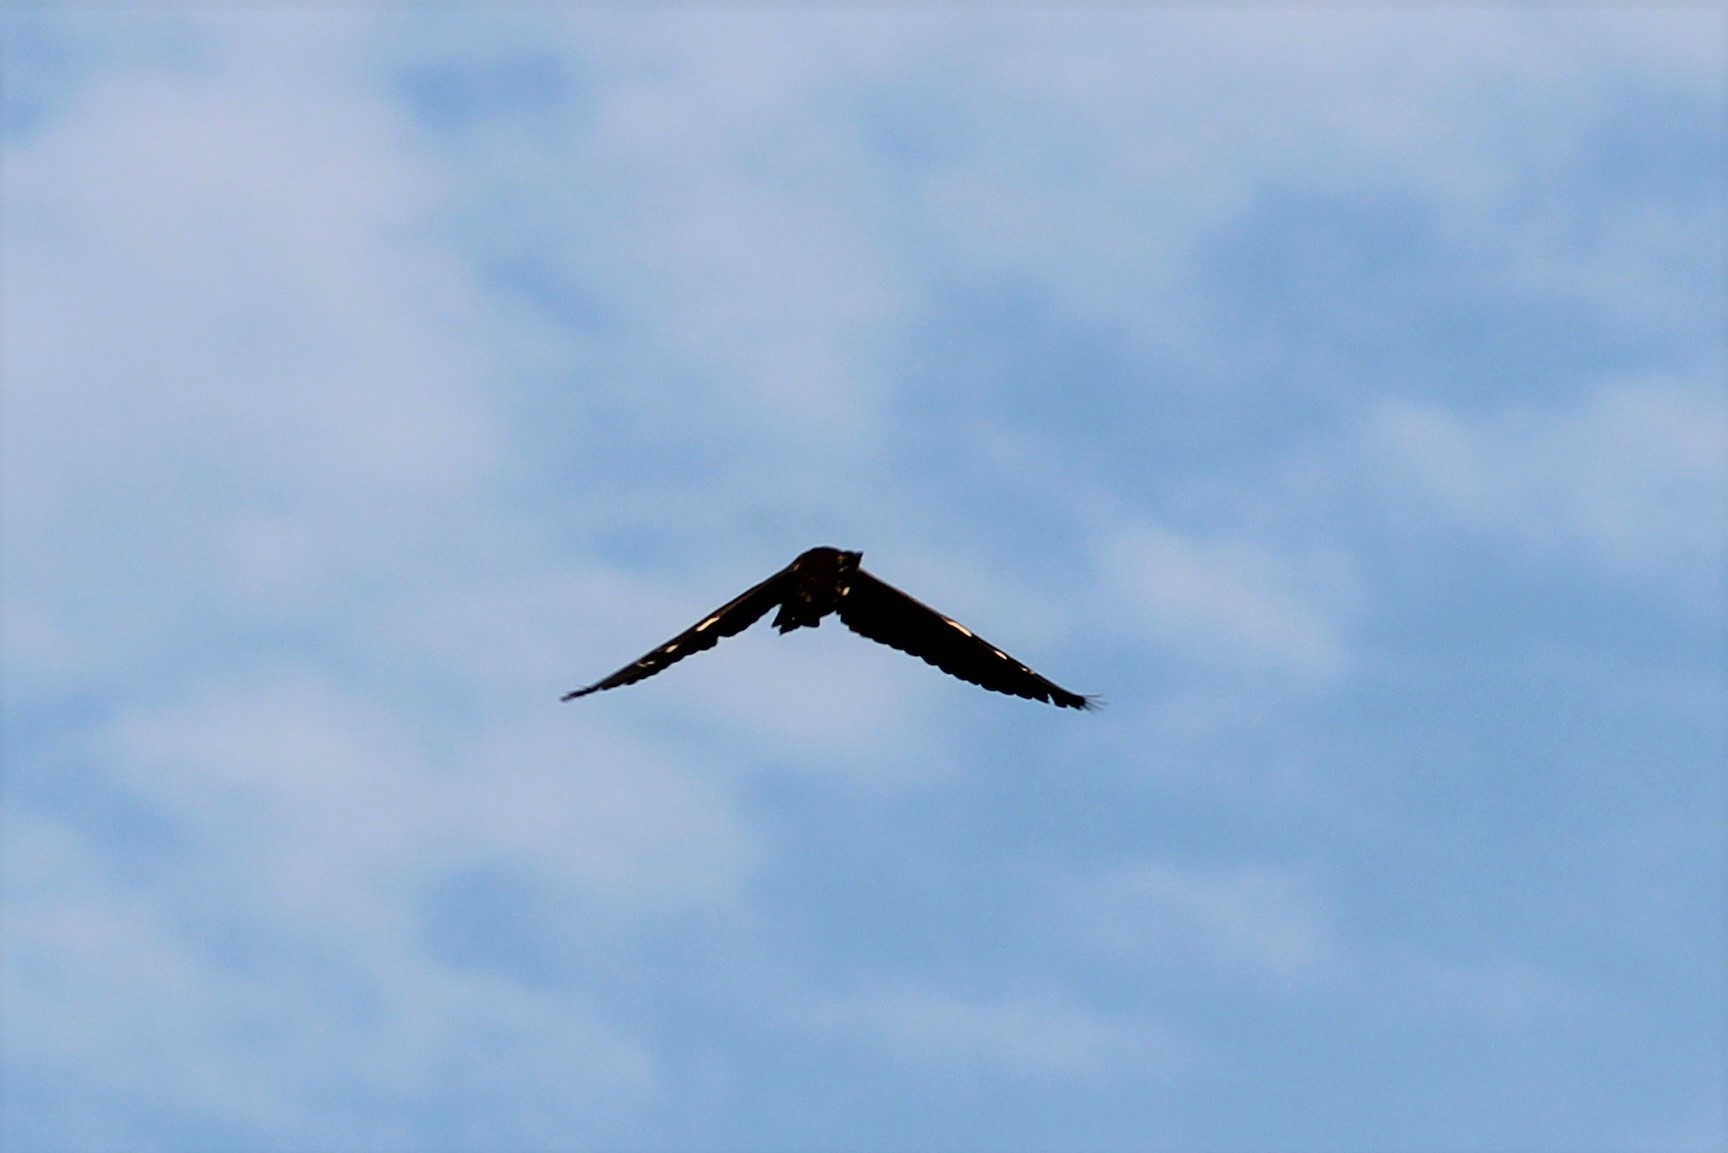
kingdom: Animalia
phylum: Chordata
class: Aves
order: Pelecaniformes
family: Ardeidae
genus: Butorides
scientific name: Butorides virescens
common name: Green heron
